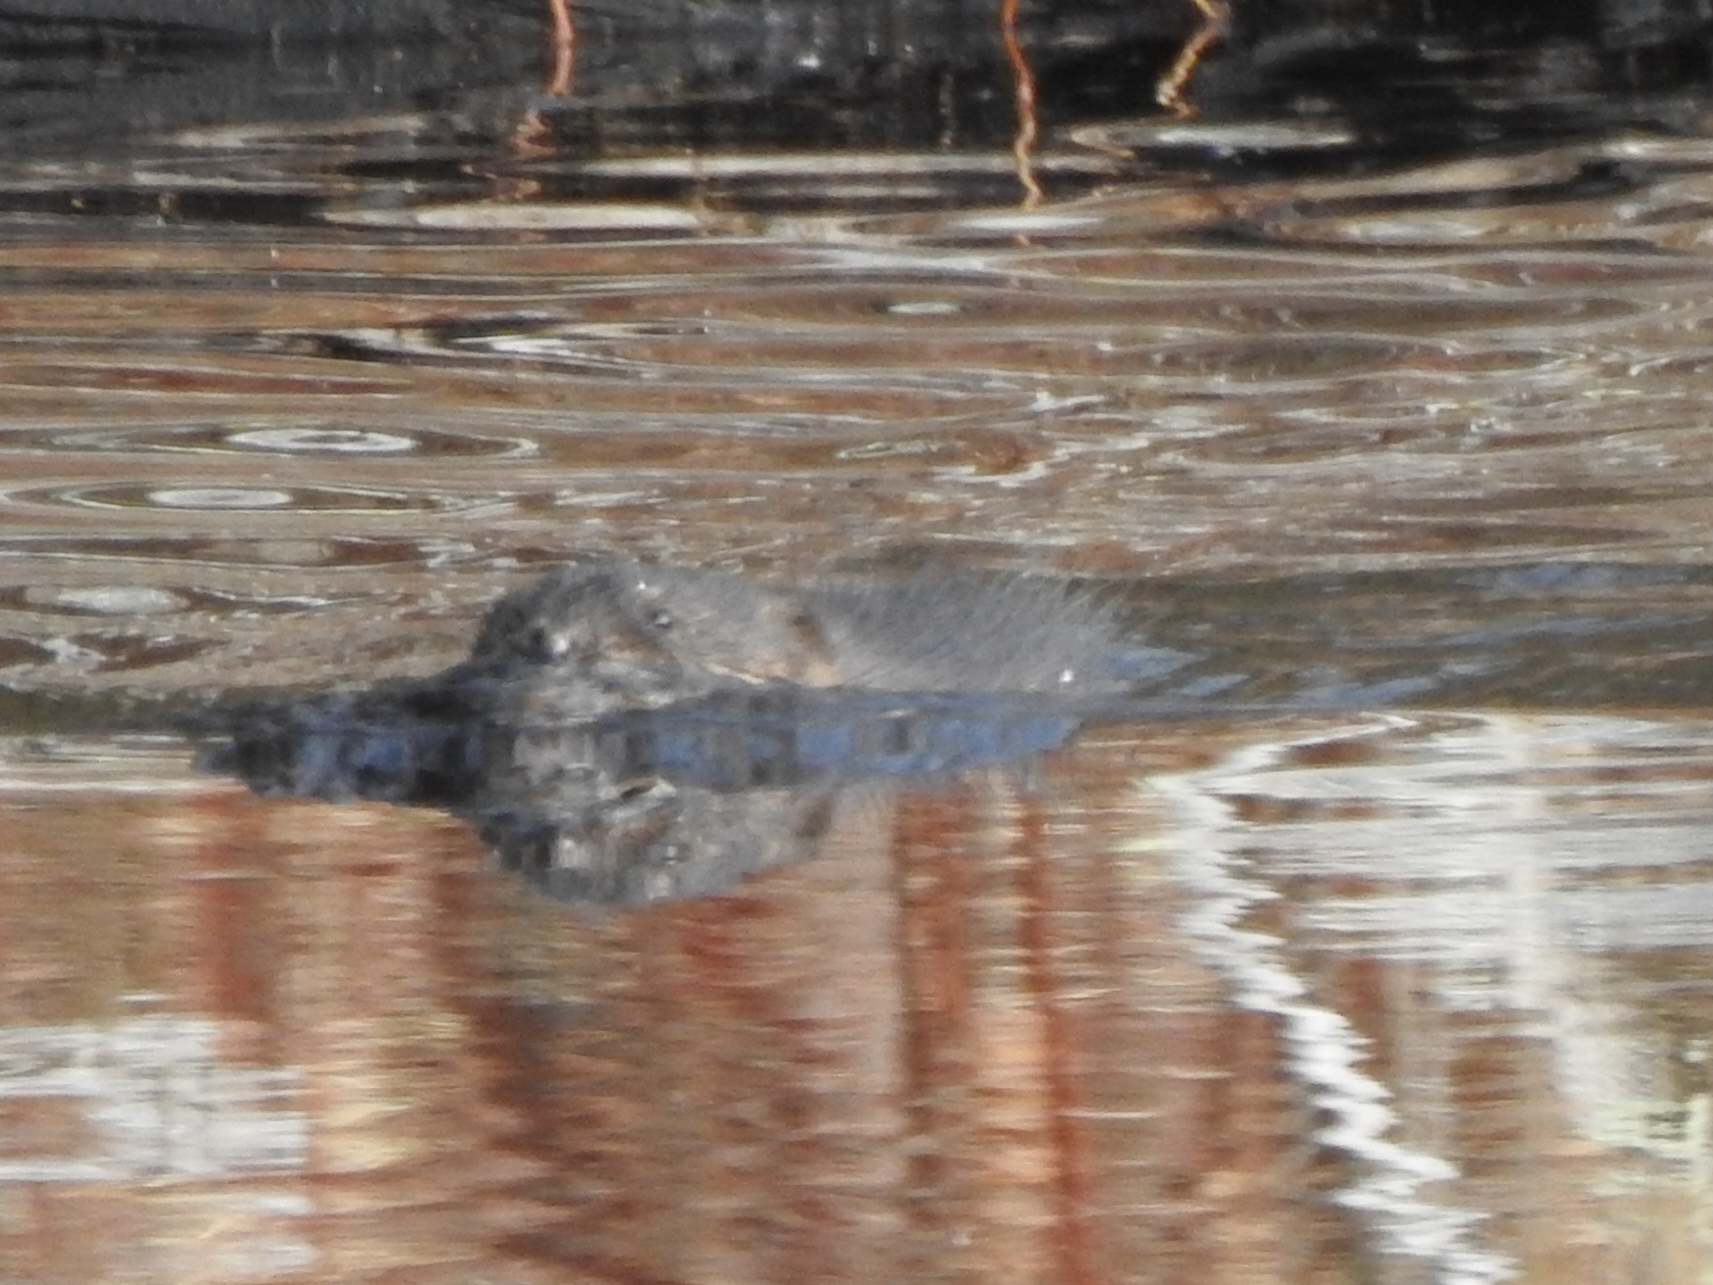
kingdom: Animalia
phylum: Chordata
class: Mammalia
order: Rodentia
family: Cricetidae
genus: Ondatra
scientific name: Ondatra zibethicus
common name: Muskrat
